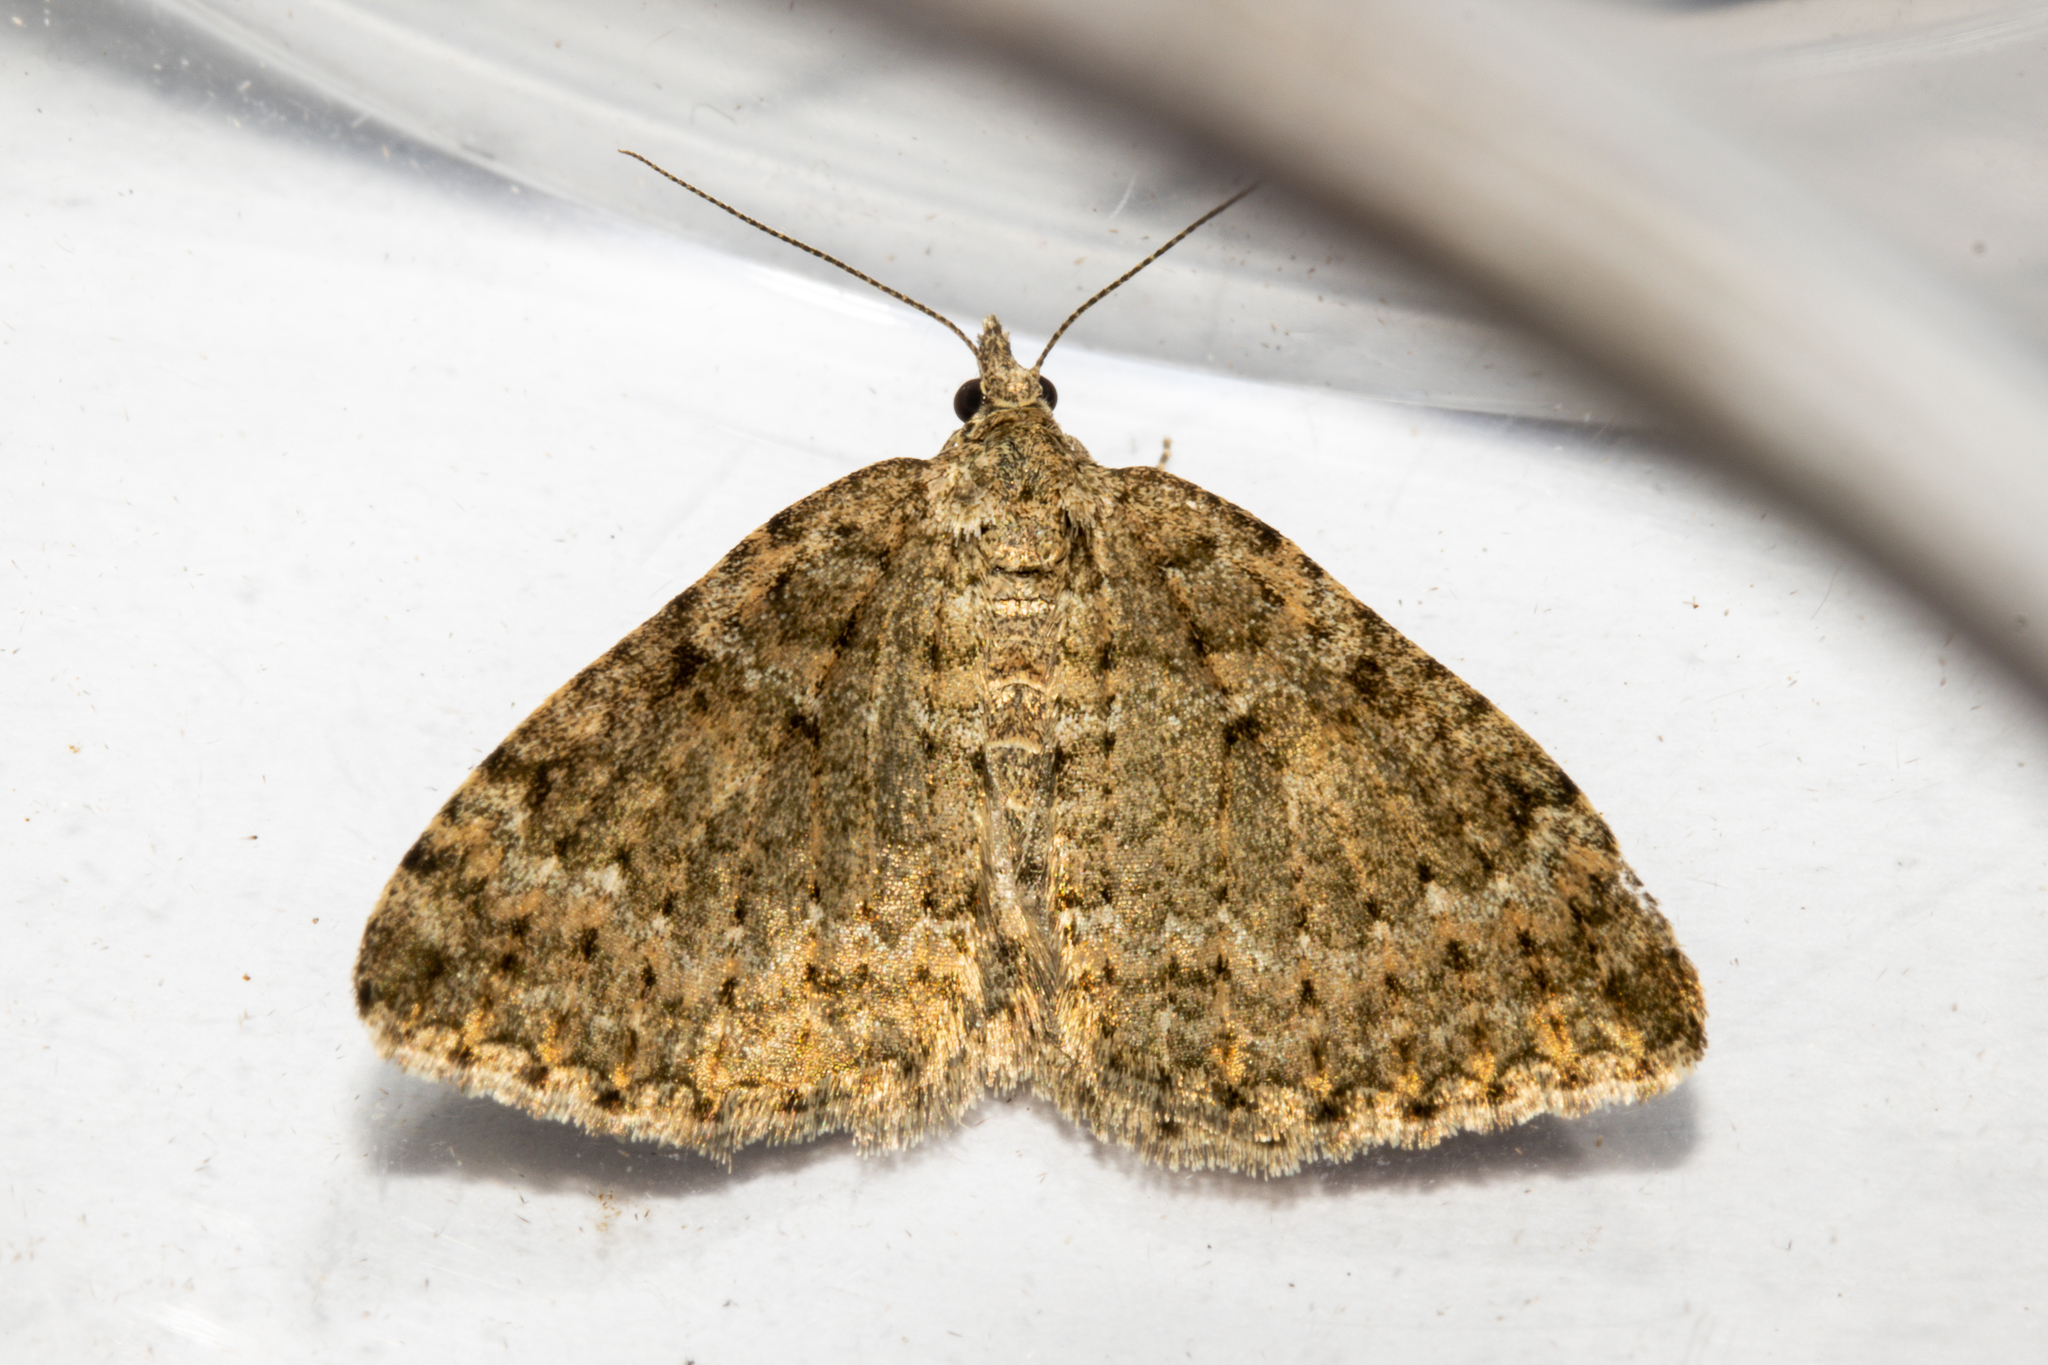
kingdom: Animalia
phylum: Arthropoda
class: Insecta
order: Lepidoptera
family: Geometridae
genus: Helastia
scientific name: Helastia corcularia
